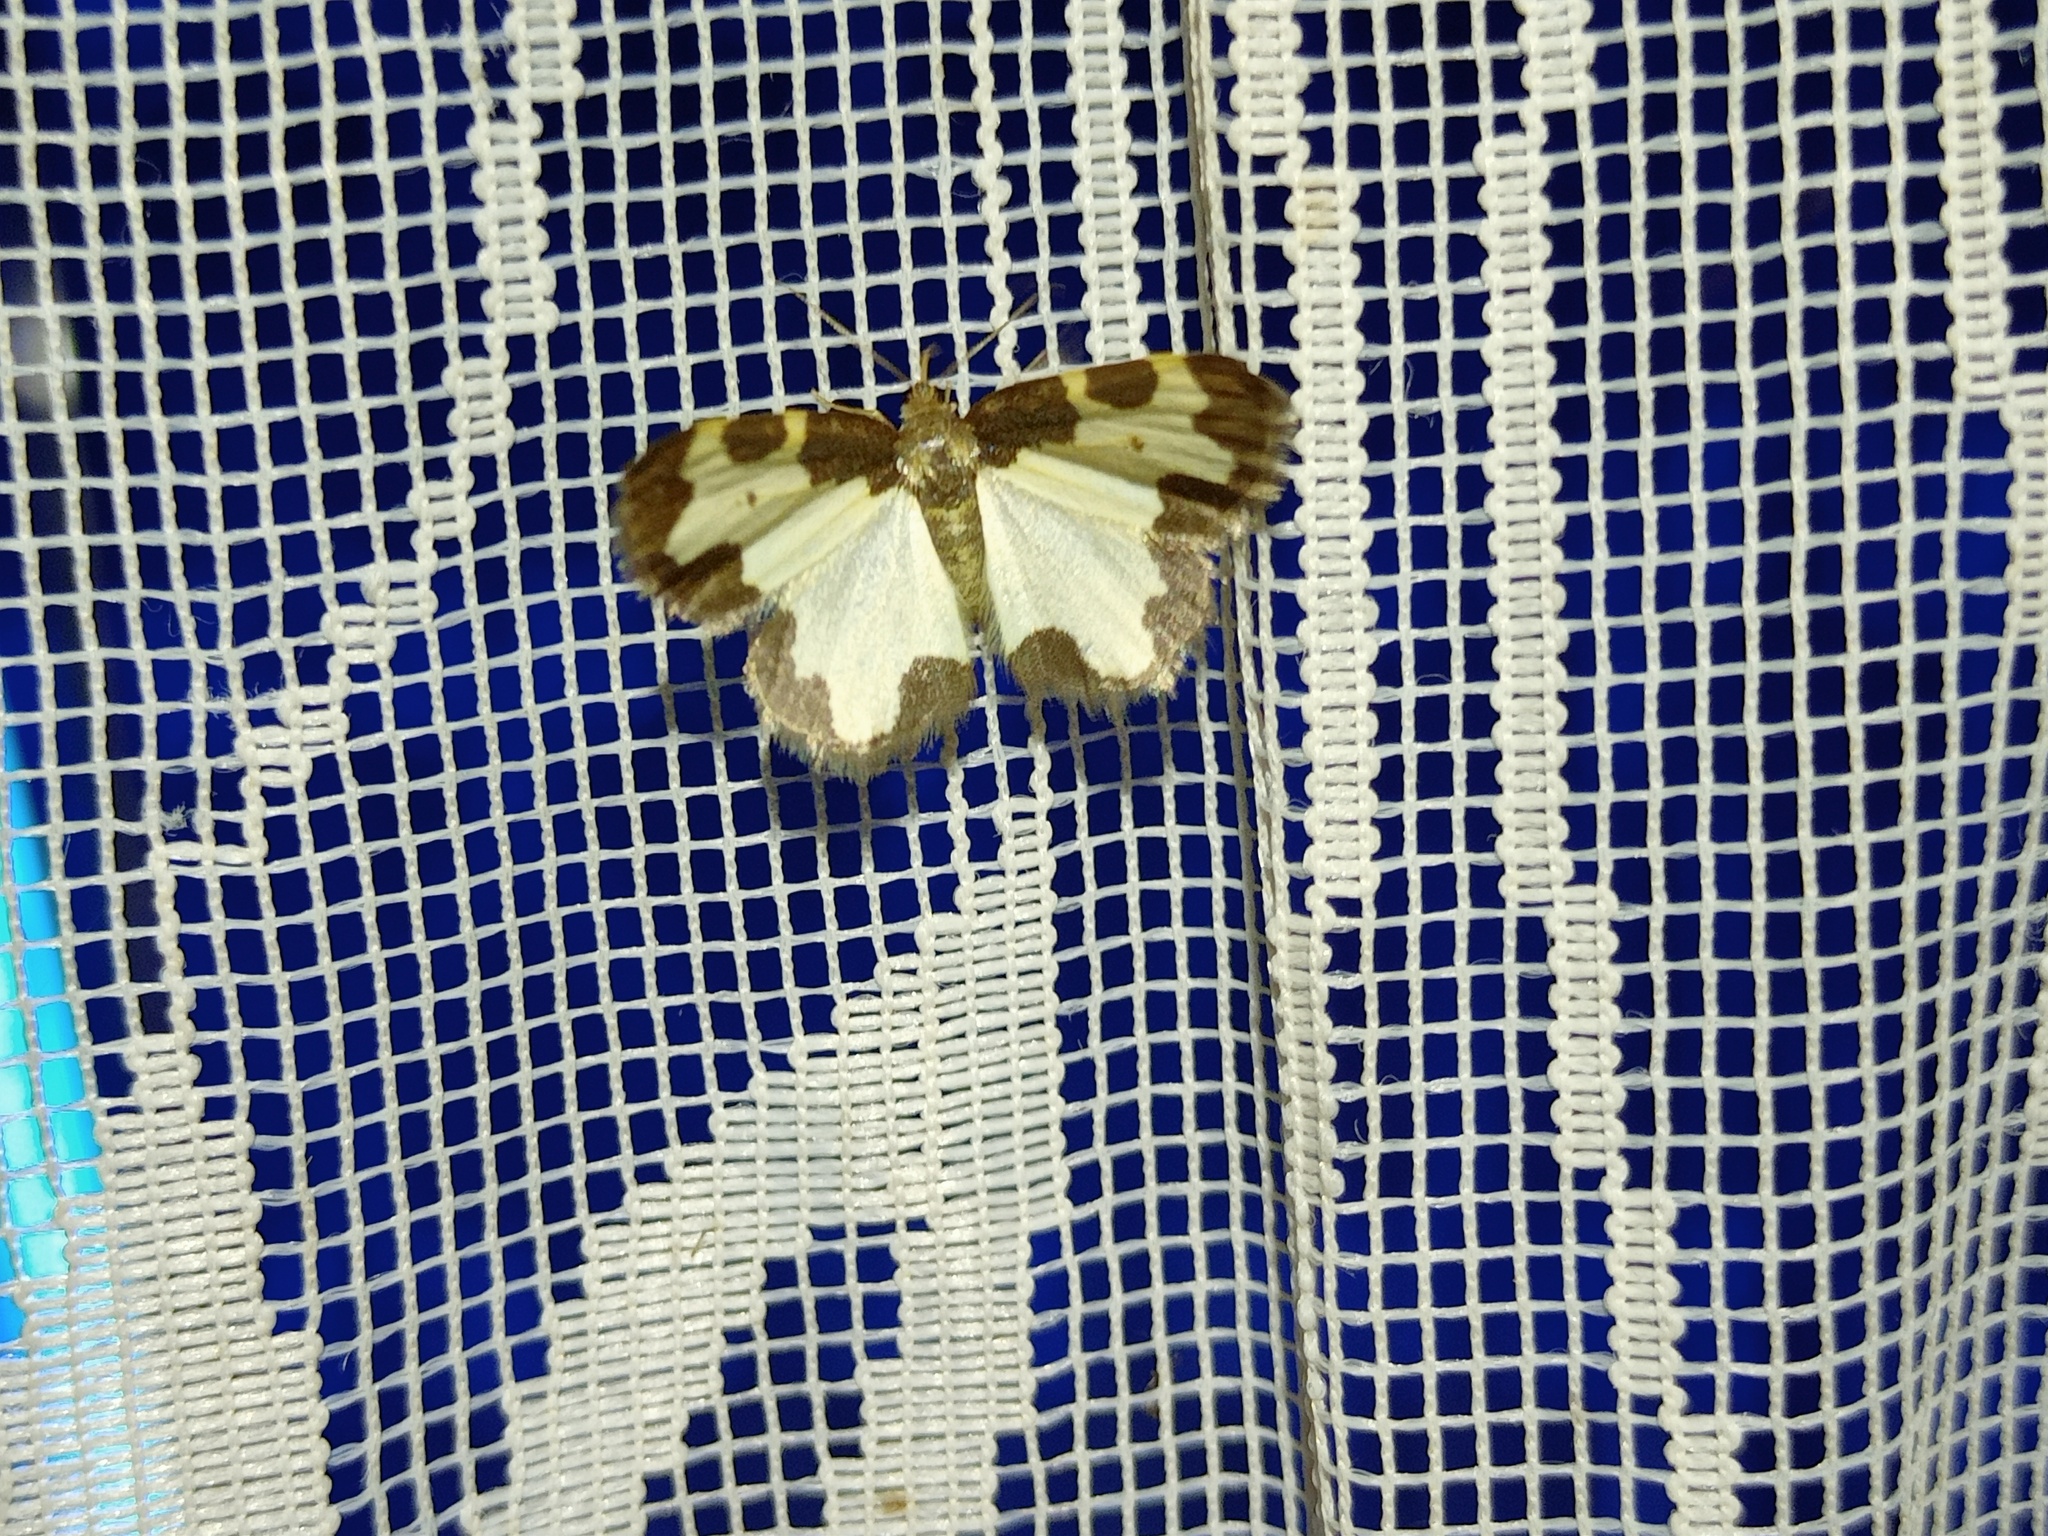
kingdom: Animalia
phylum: Arthropoda
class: Insecta
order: Lepidoptera
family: Geometridae
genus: Lomaspilis
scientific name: Lomaspilis marginata
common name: Clouded border
